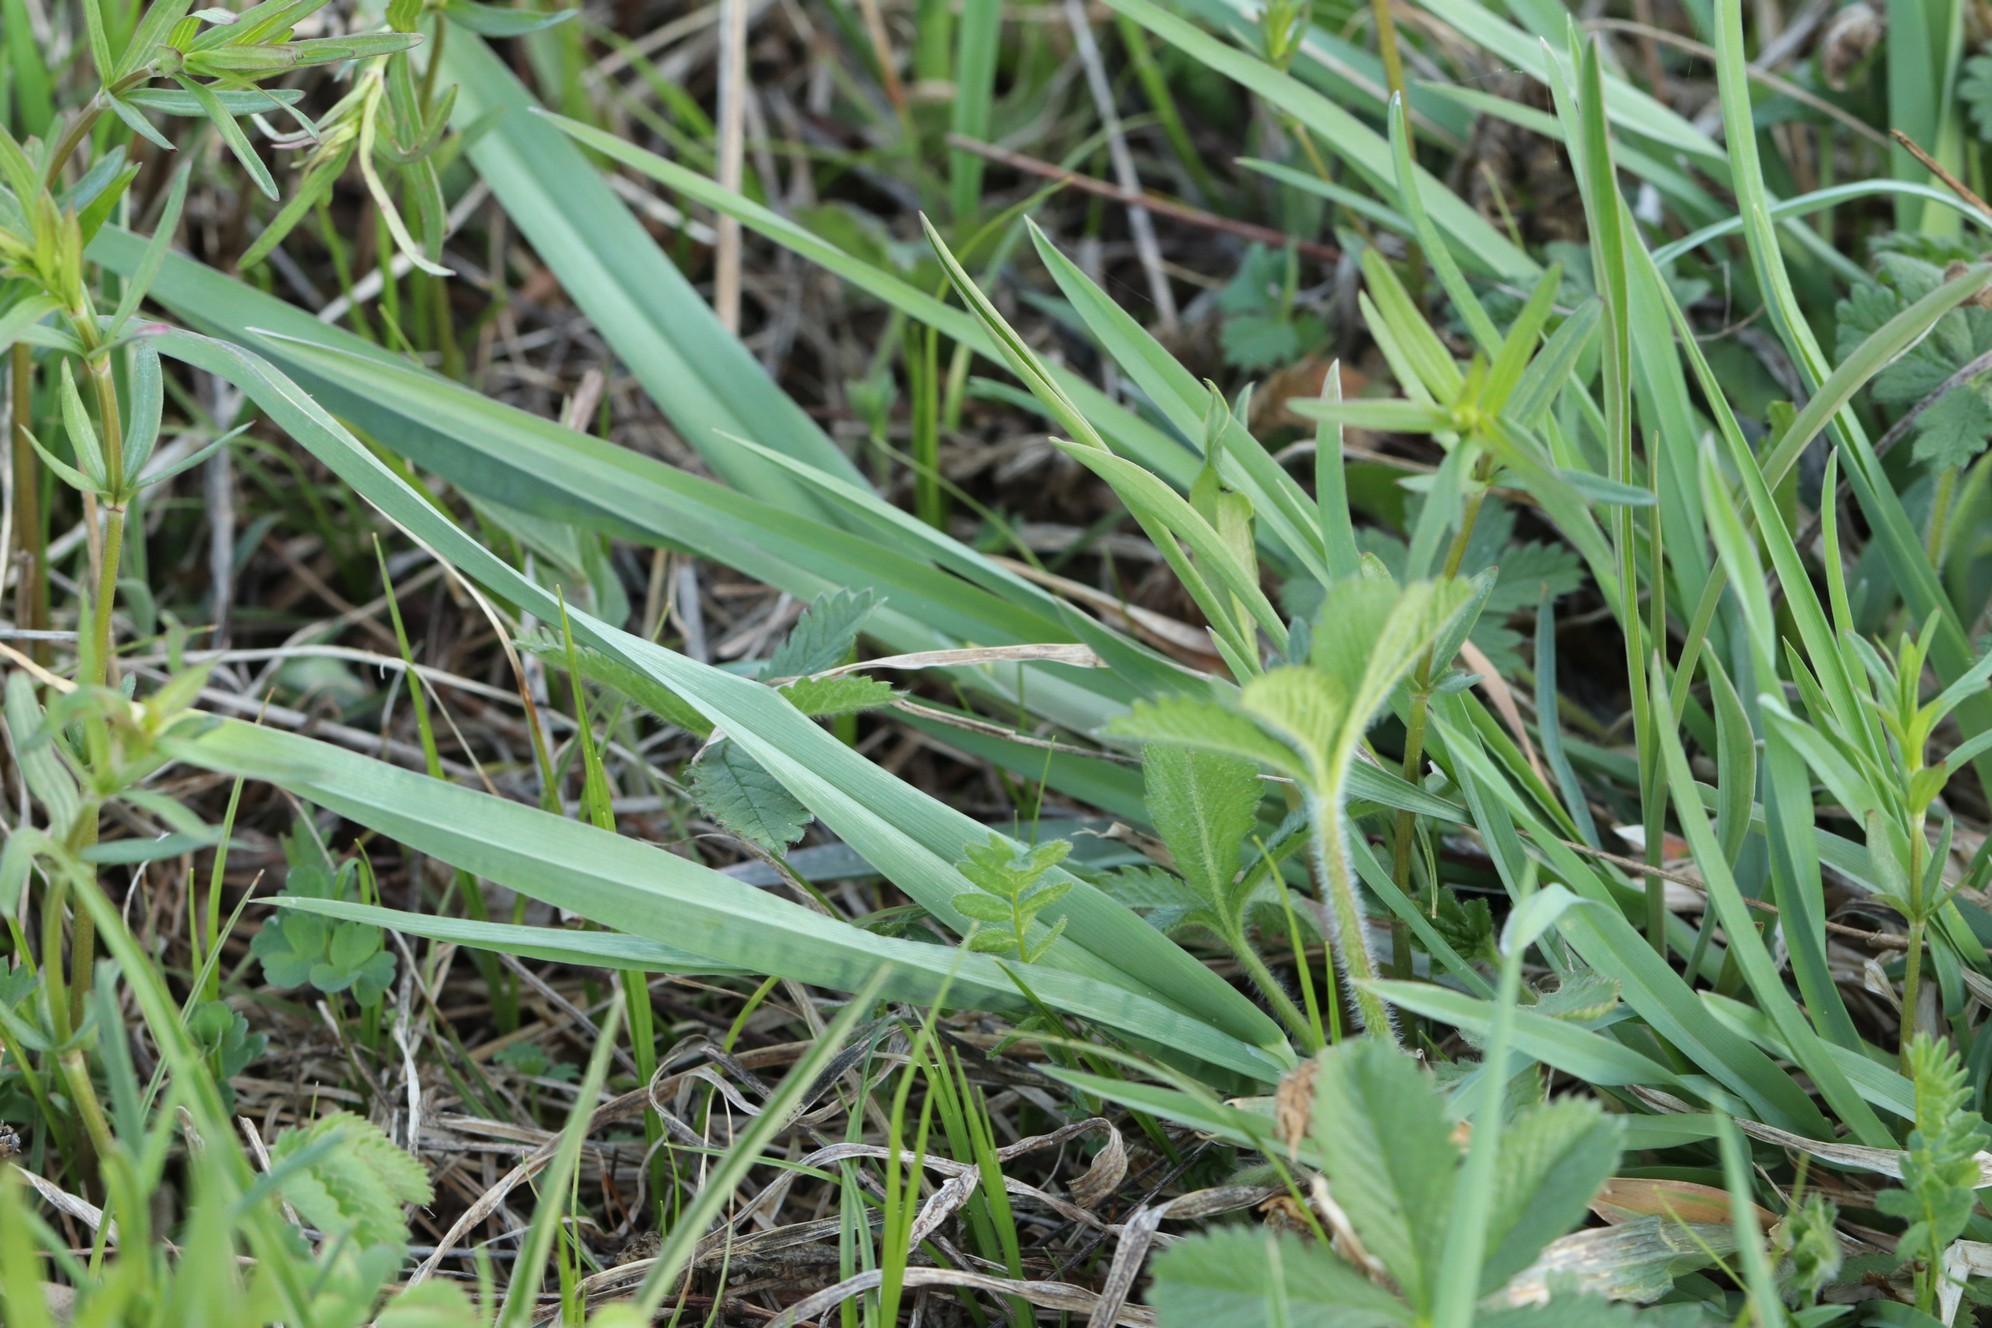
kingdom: Plantae
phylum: Tracheophyta
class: Liliopsida
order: Poales
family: Poaceae
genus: Dactylis
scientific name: Dactylis glomerata
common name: Orchardgrass
